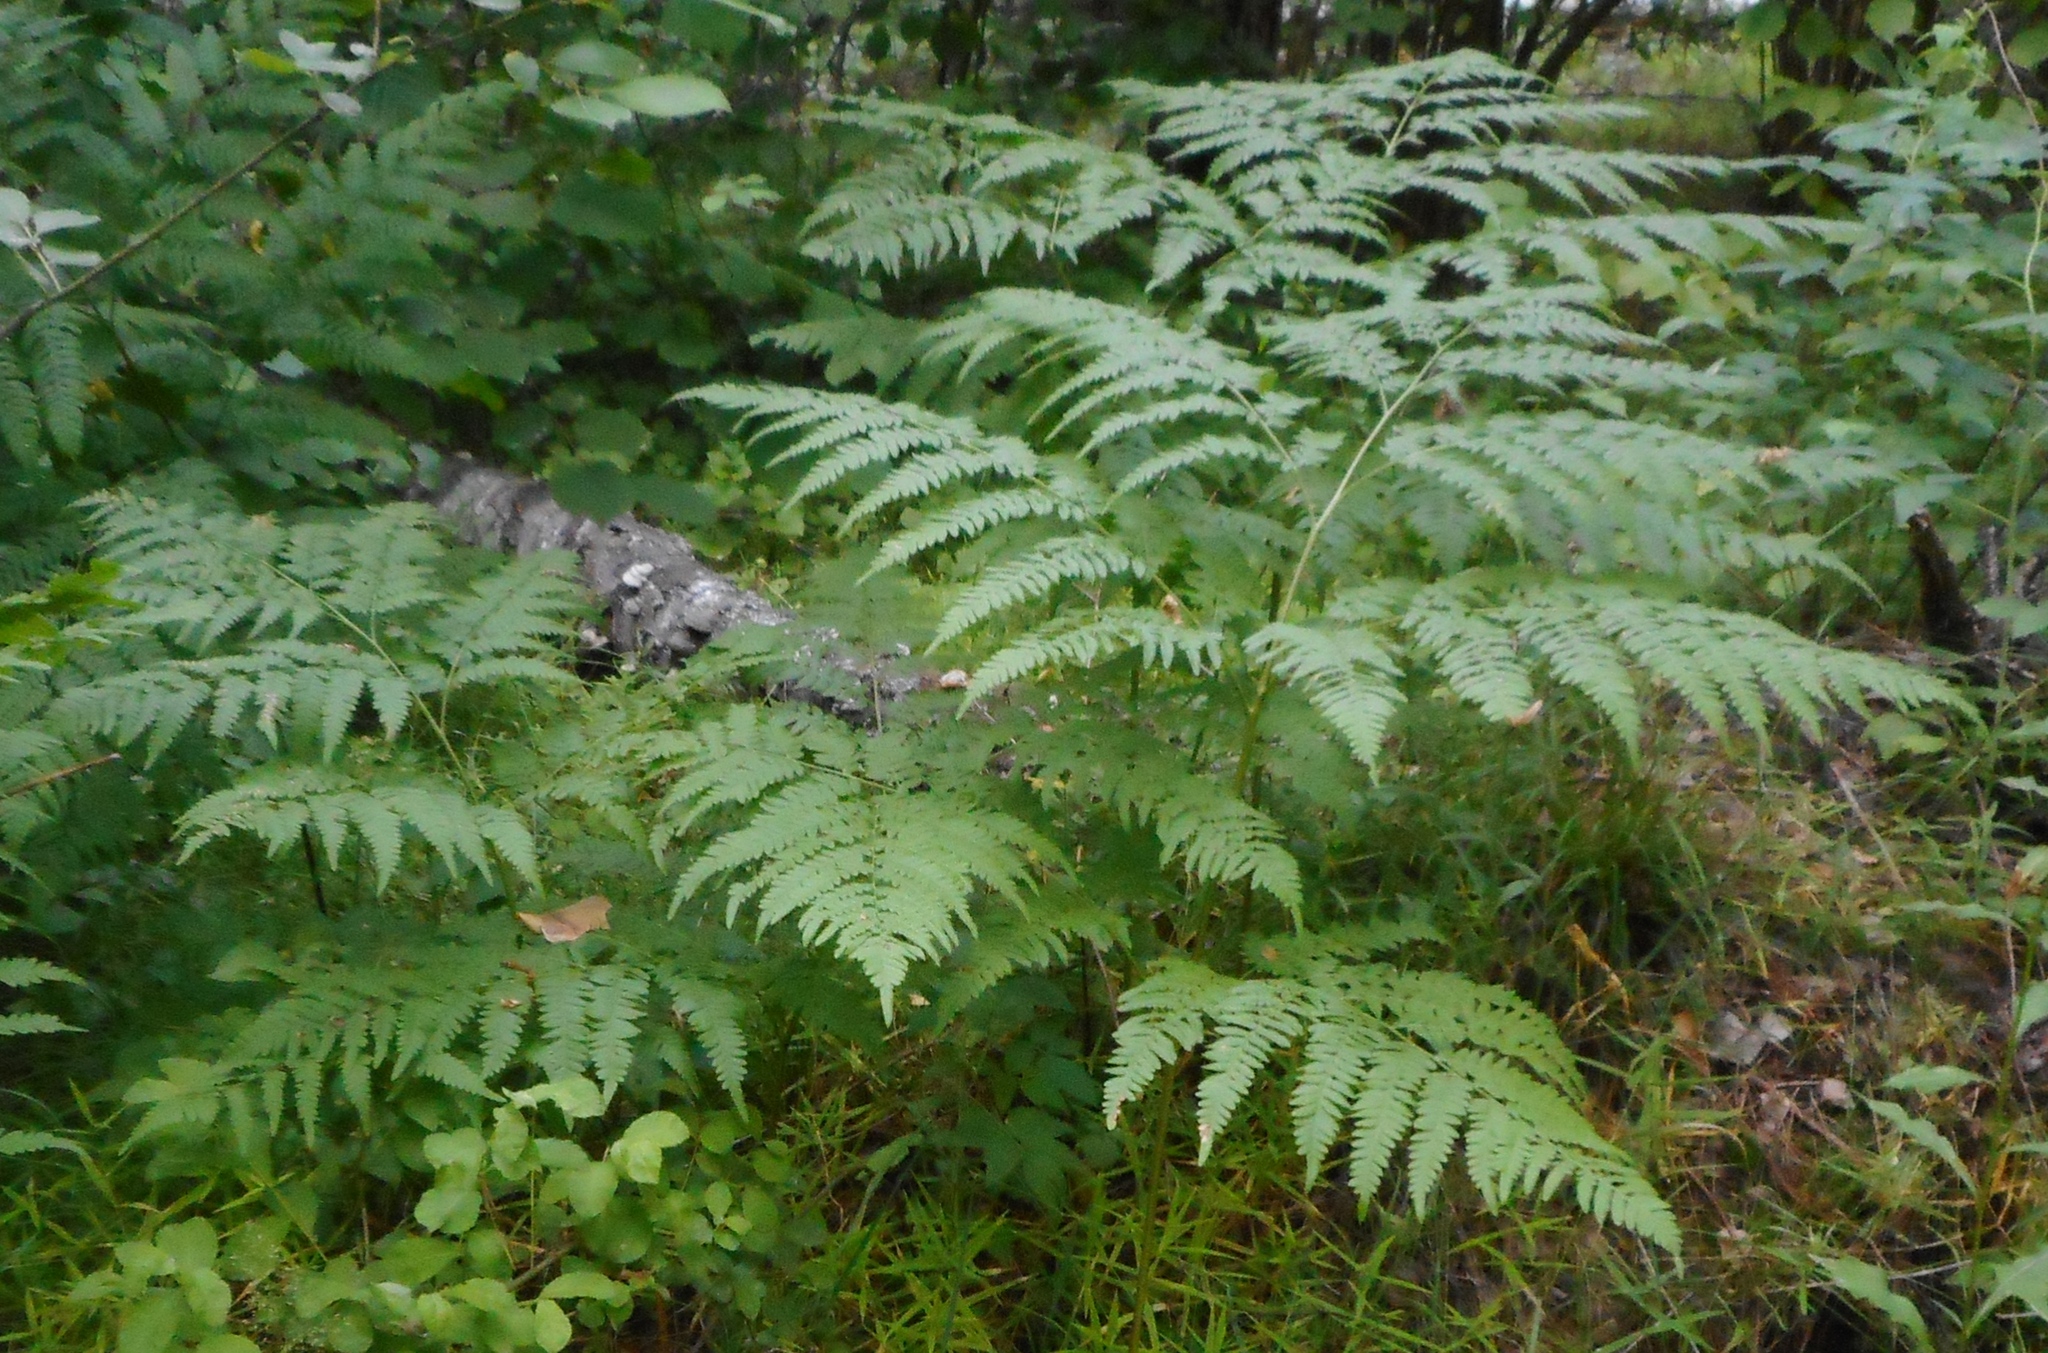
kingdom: Plantae
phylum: Tracheophyta
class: Polypodiopsida
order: Polypodiales
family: Dennstaedtiaceae
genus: Pteridium
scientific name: Pteridium aquilinum
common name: Bracken
